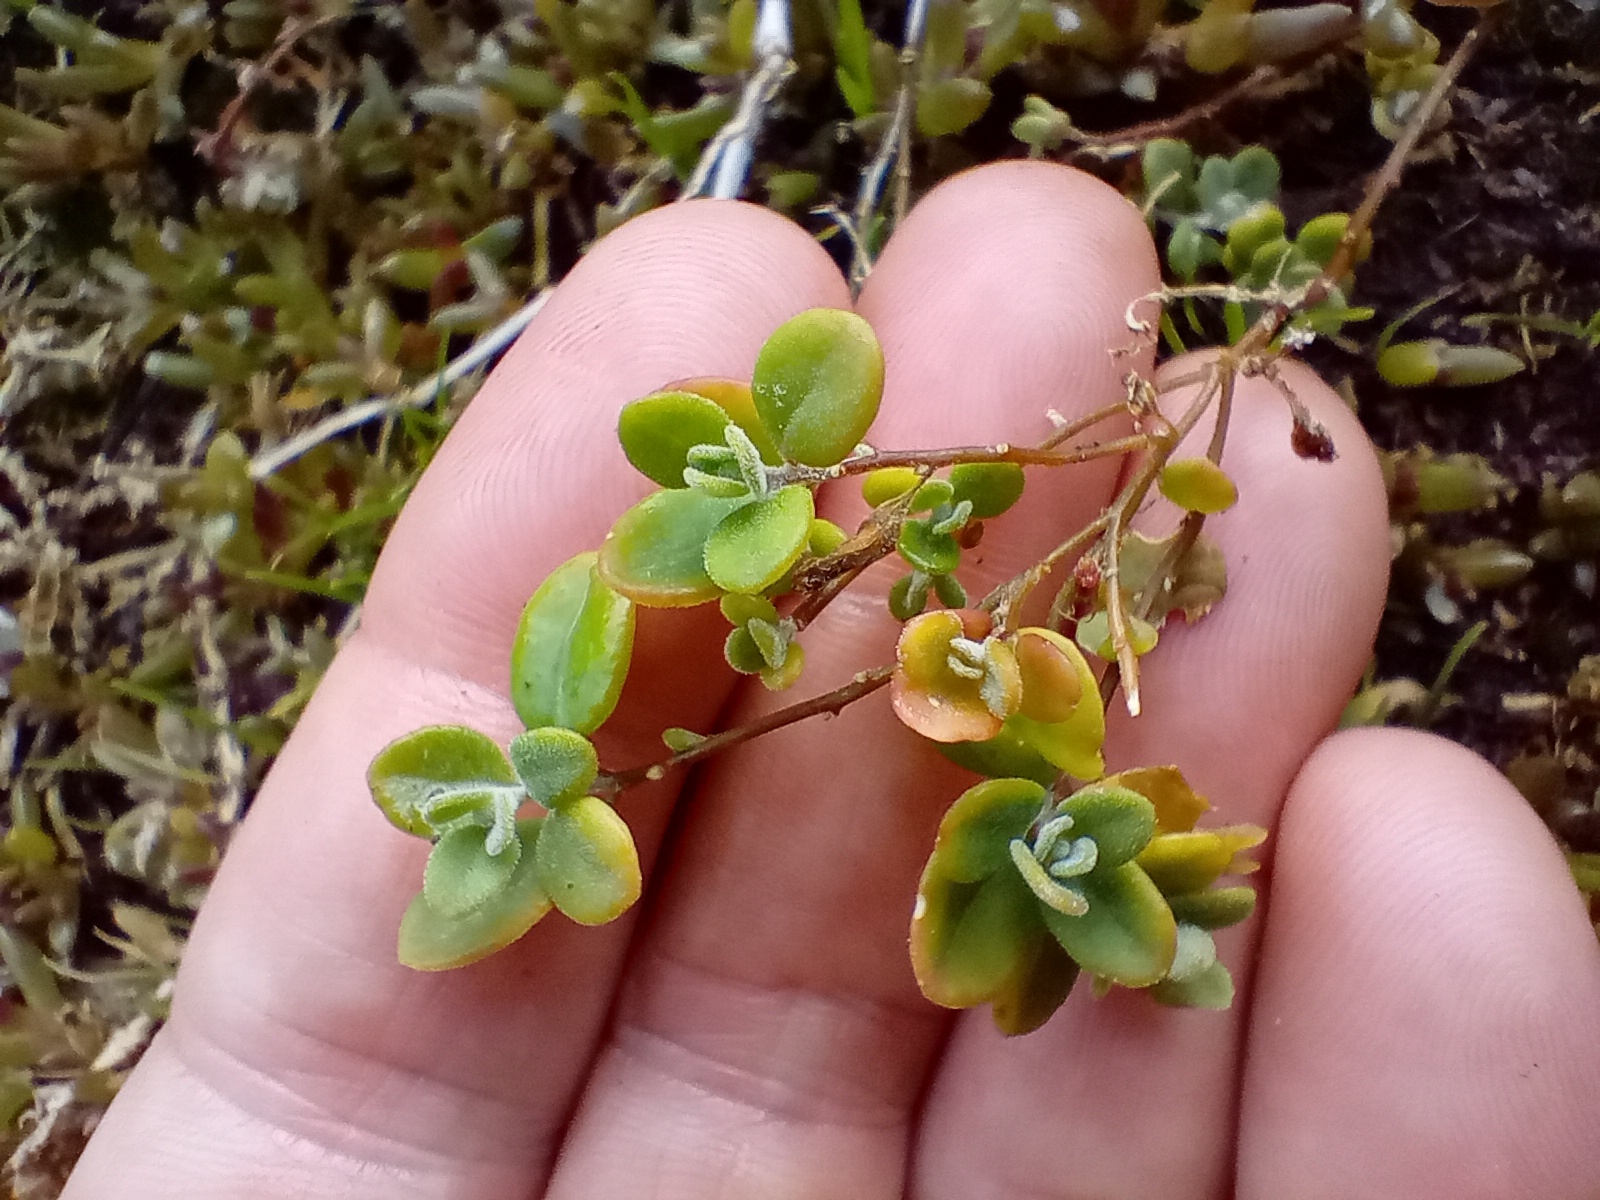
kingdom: Plantae
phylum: Tracheophyta
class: Magnoliopsida
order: Caryophyllales
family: Amaranthaceae
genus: Chenopodium
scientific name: Chenopodium trigonon
